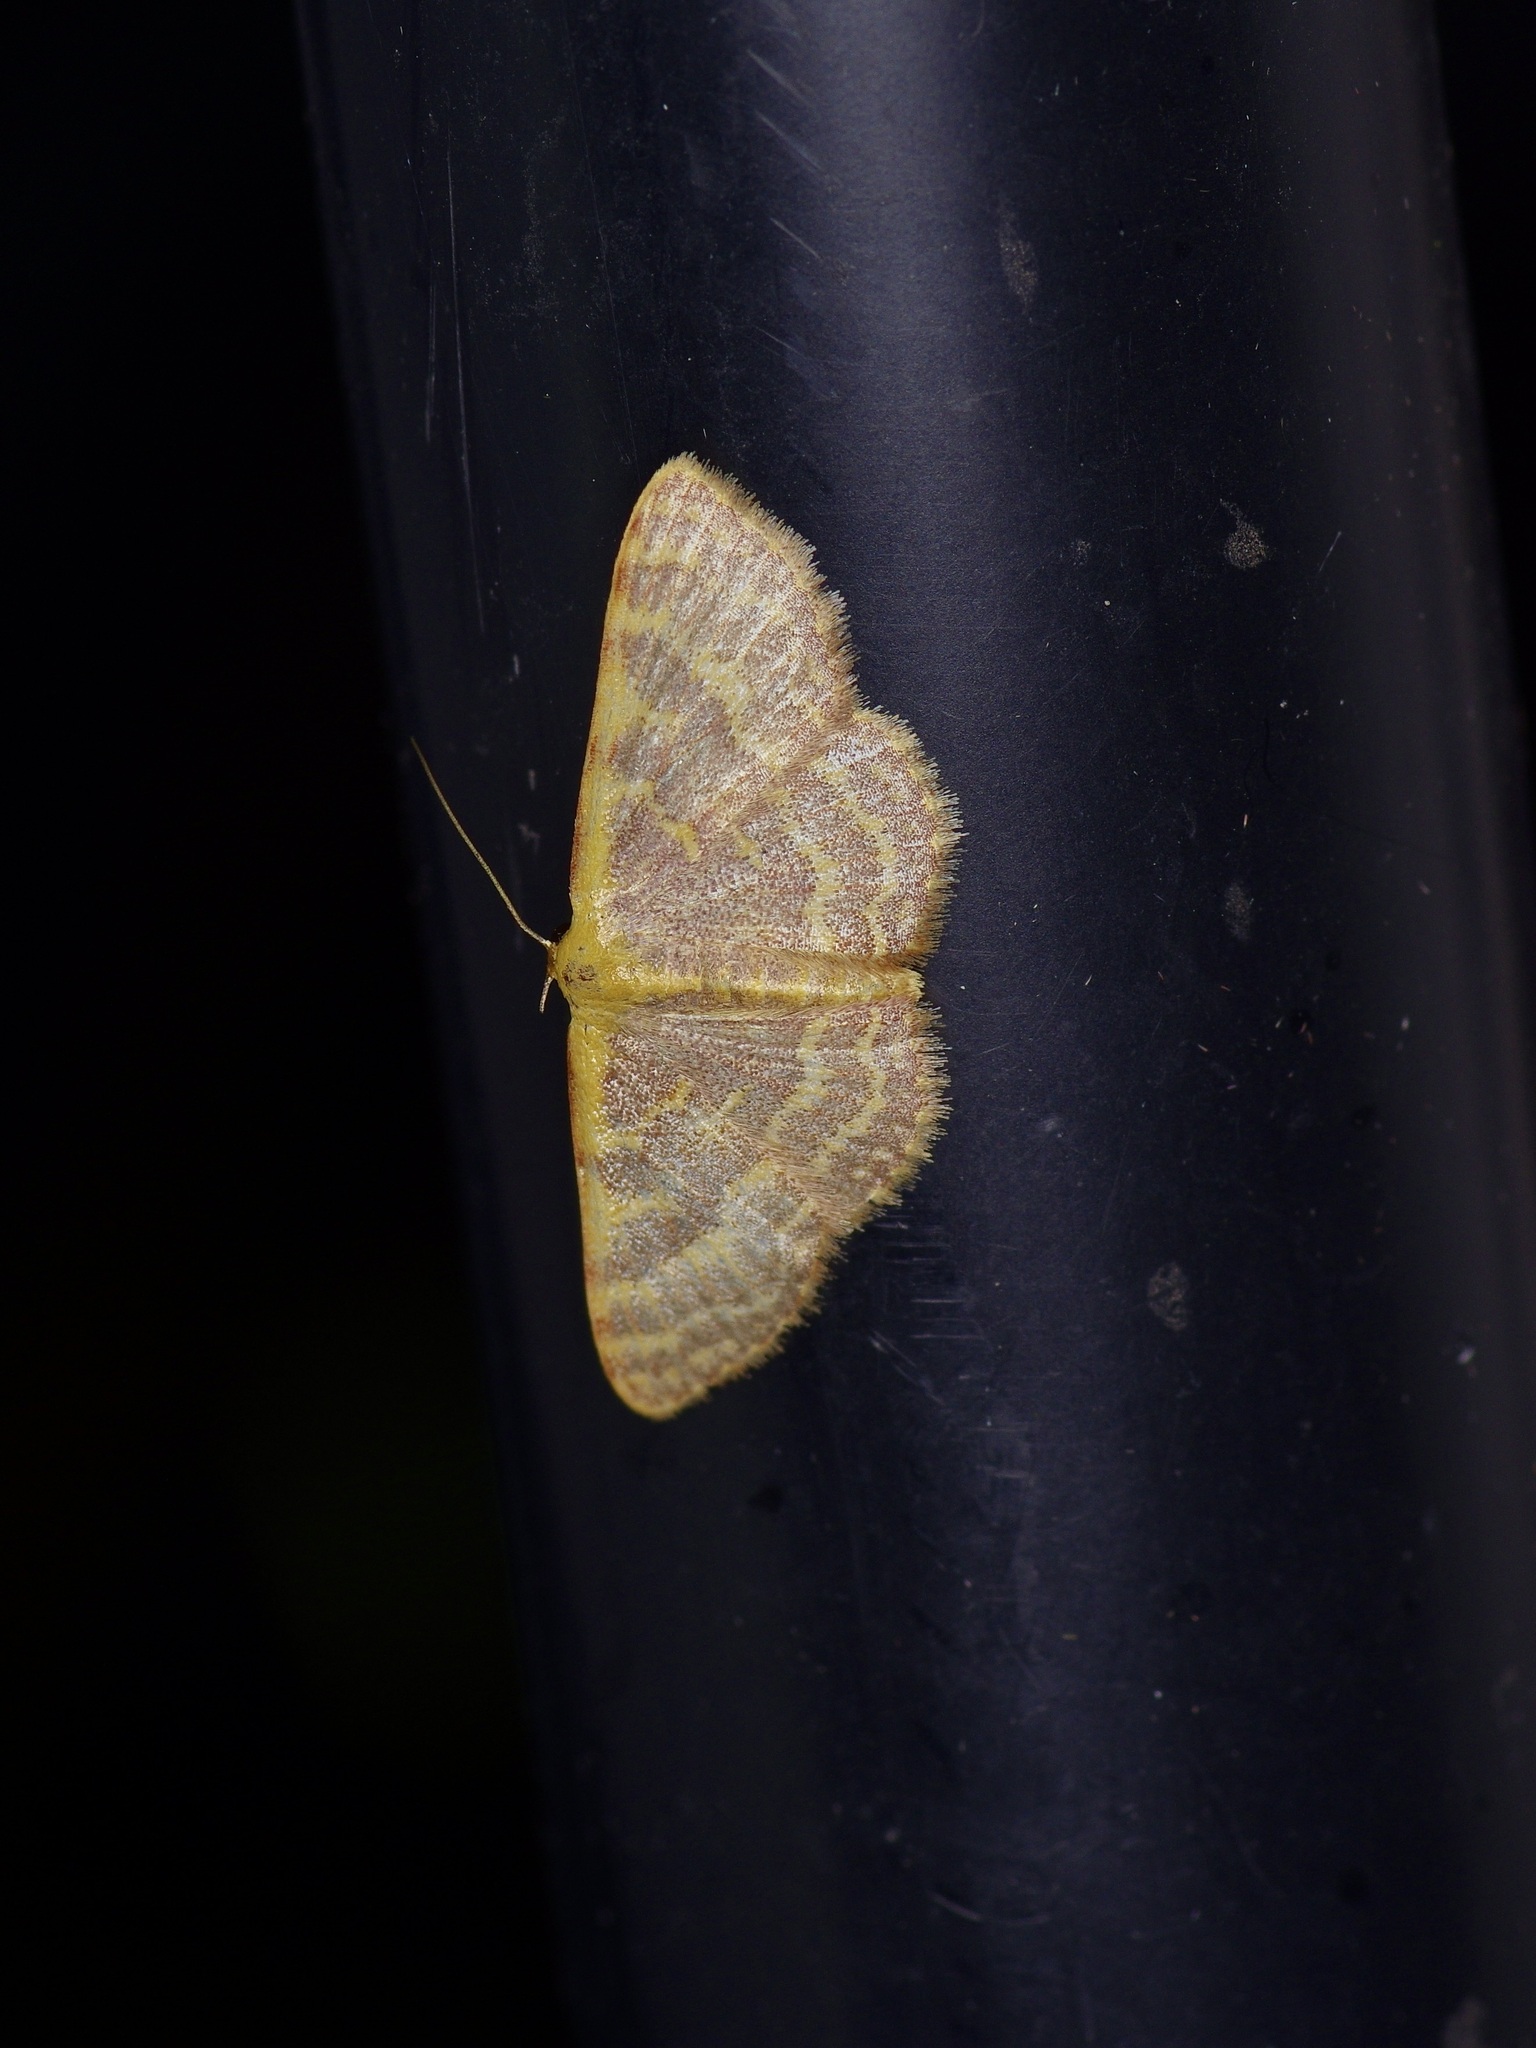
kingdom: Animalia
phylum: Arthropoda
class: Insecta
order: Lepidoptera
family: Geometridae
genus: Leptostales
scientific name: Leptostales pannaria
